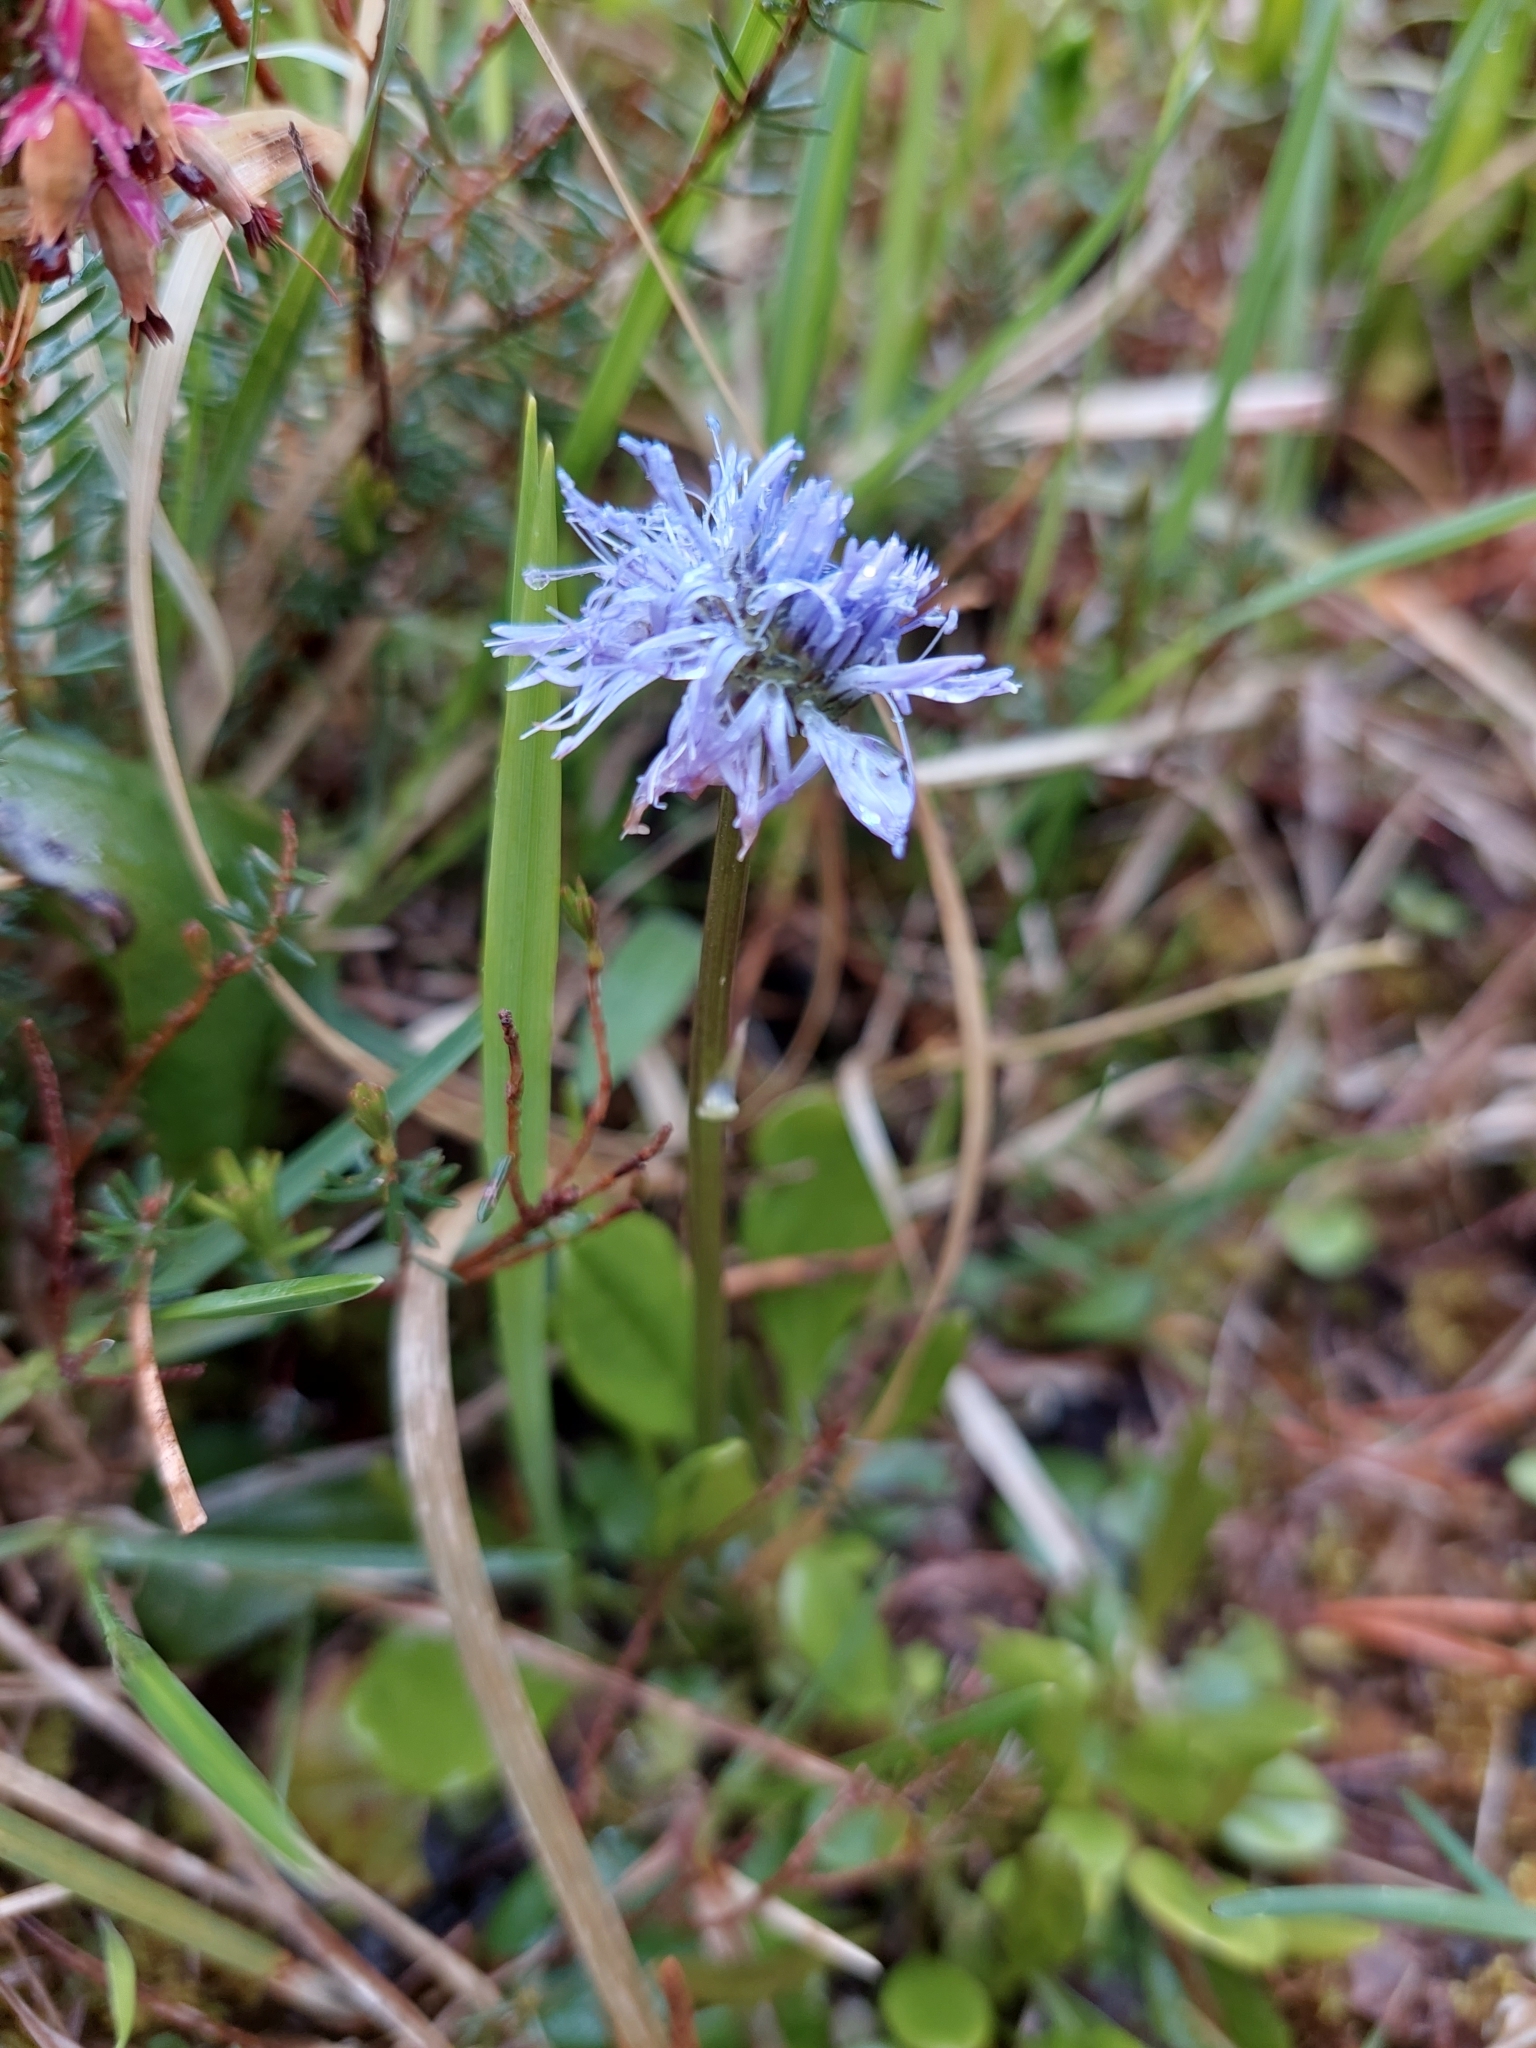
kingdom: Plantae
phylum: Tracheophyta
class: Magnoliopsida
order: Lamiales
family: Plantaginaceae
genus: Globularia
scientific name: Globularia cordifolia
